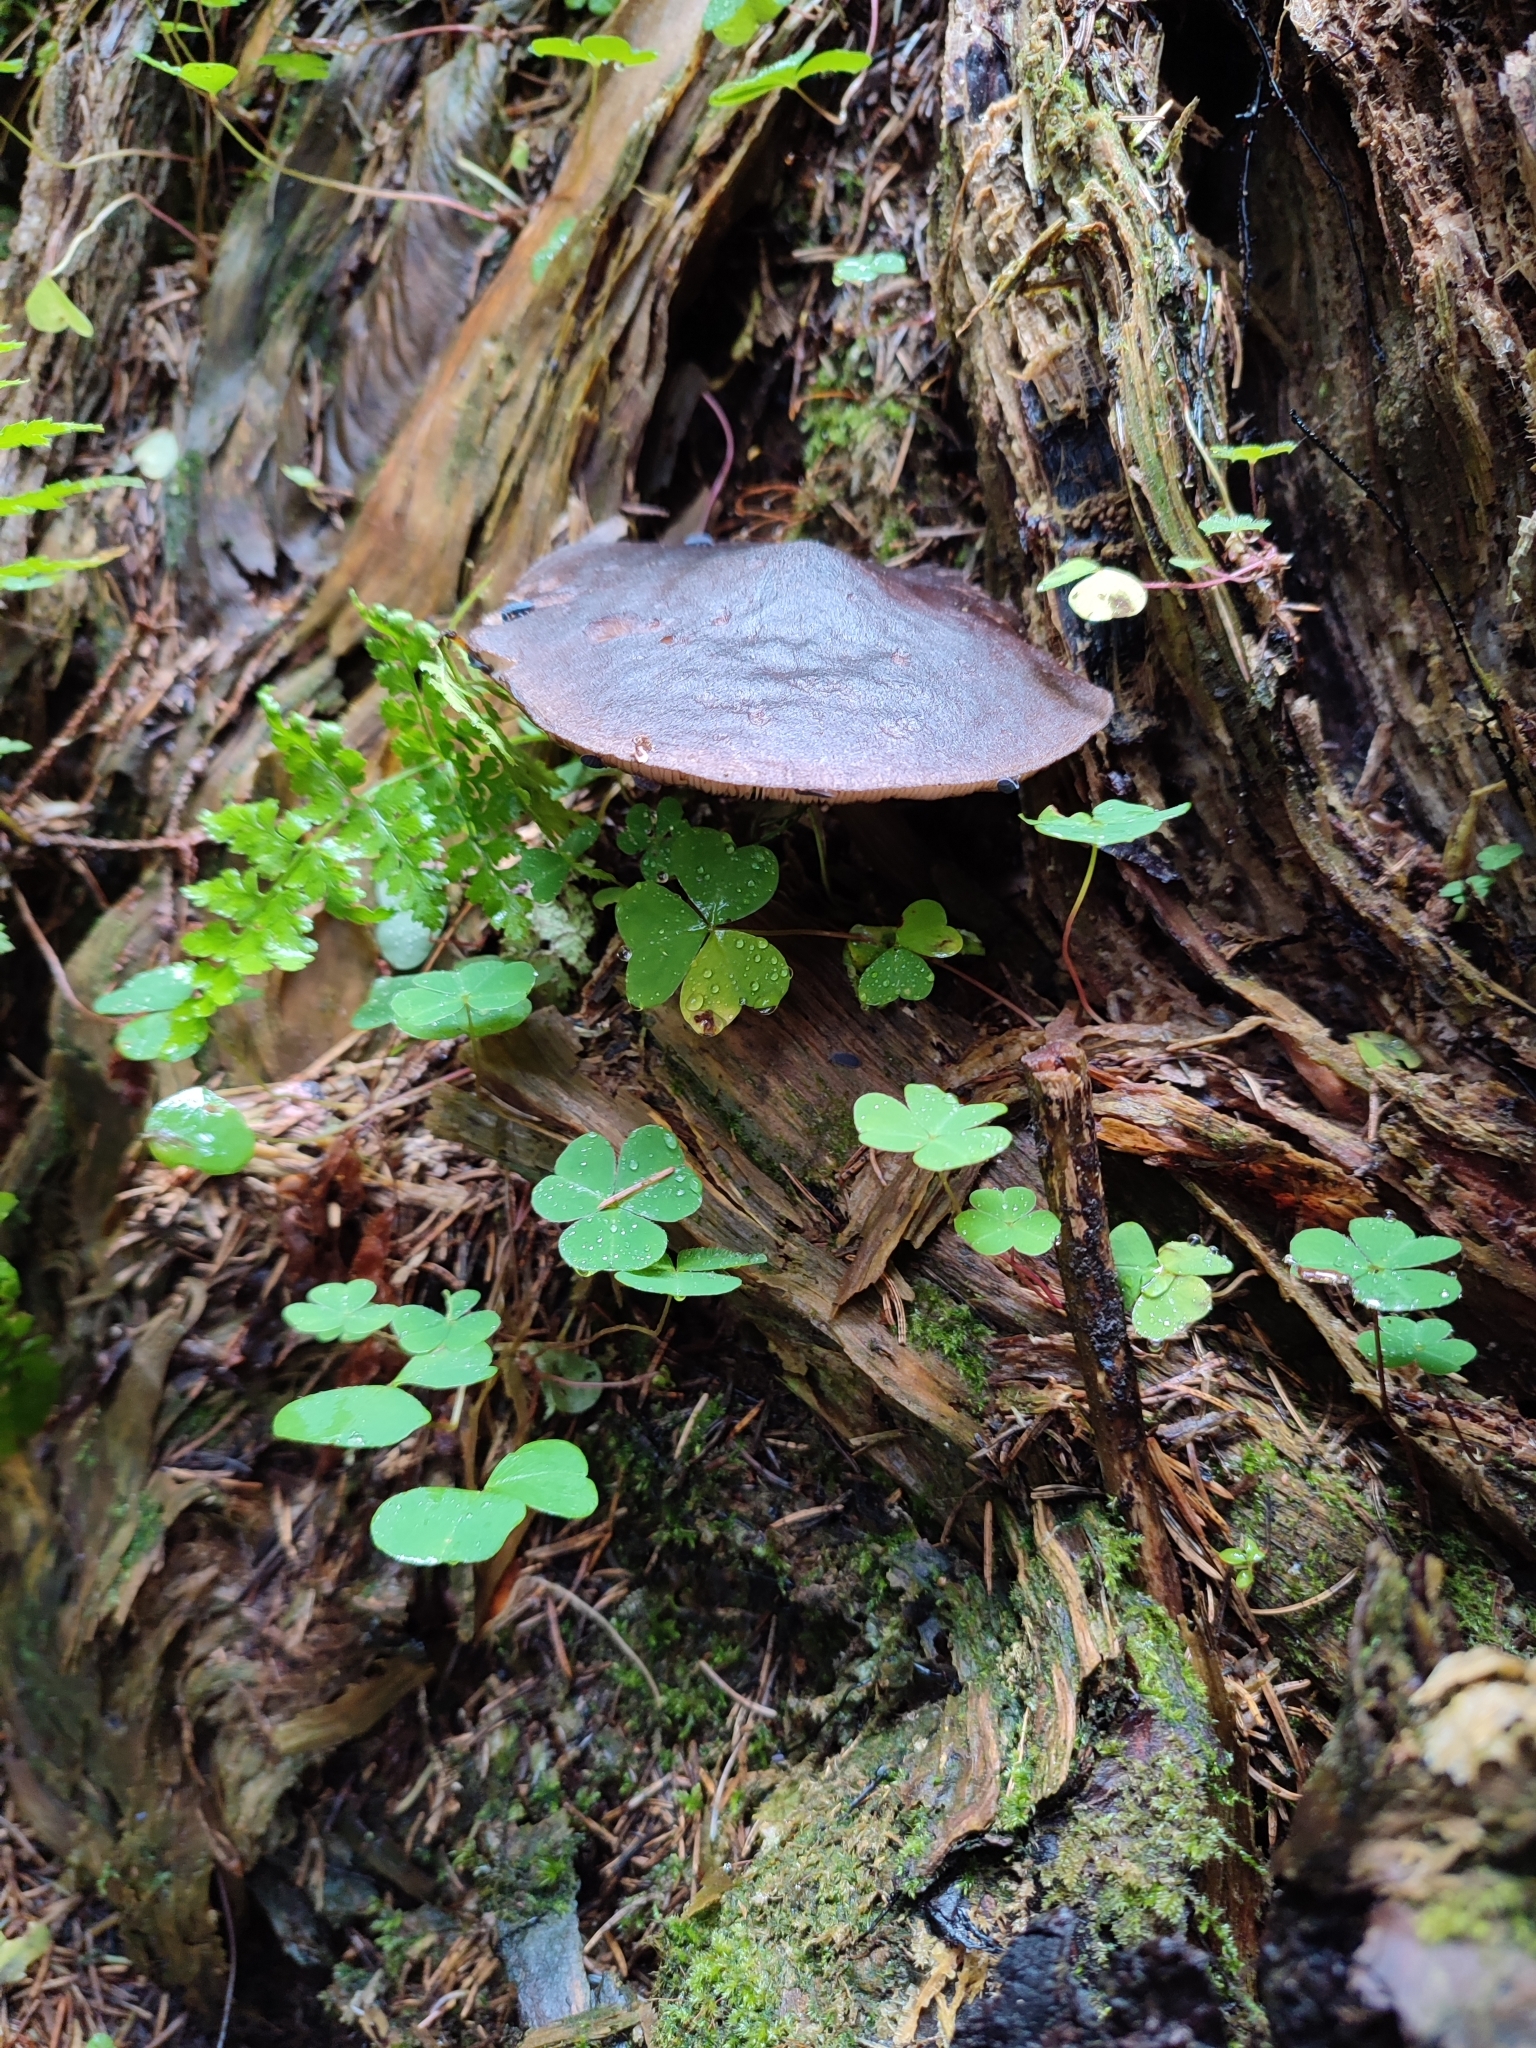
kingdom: Fungi
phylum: Basidiomycota
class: Agaricomycetes
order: Agaricales
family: Pluteaceae
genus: Pluteus
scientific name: Pluteus atromarginatus
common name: Blackedged shield
